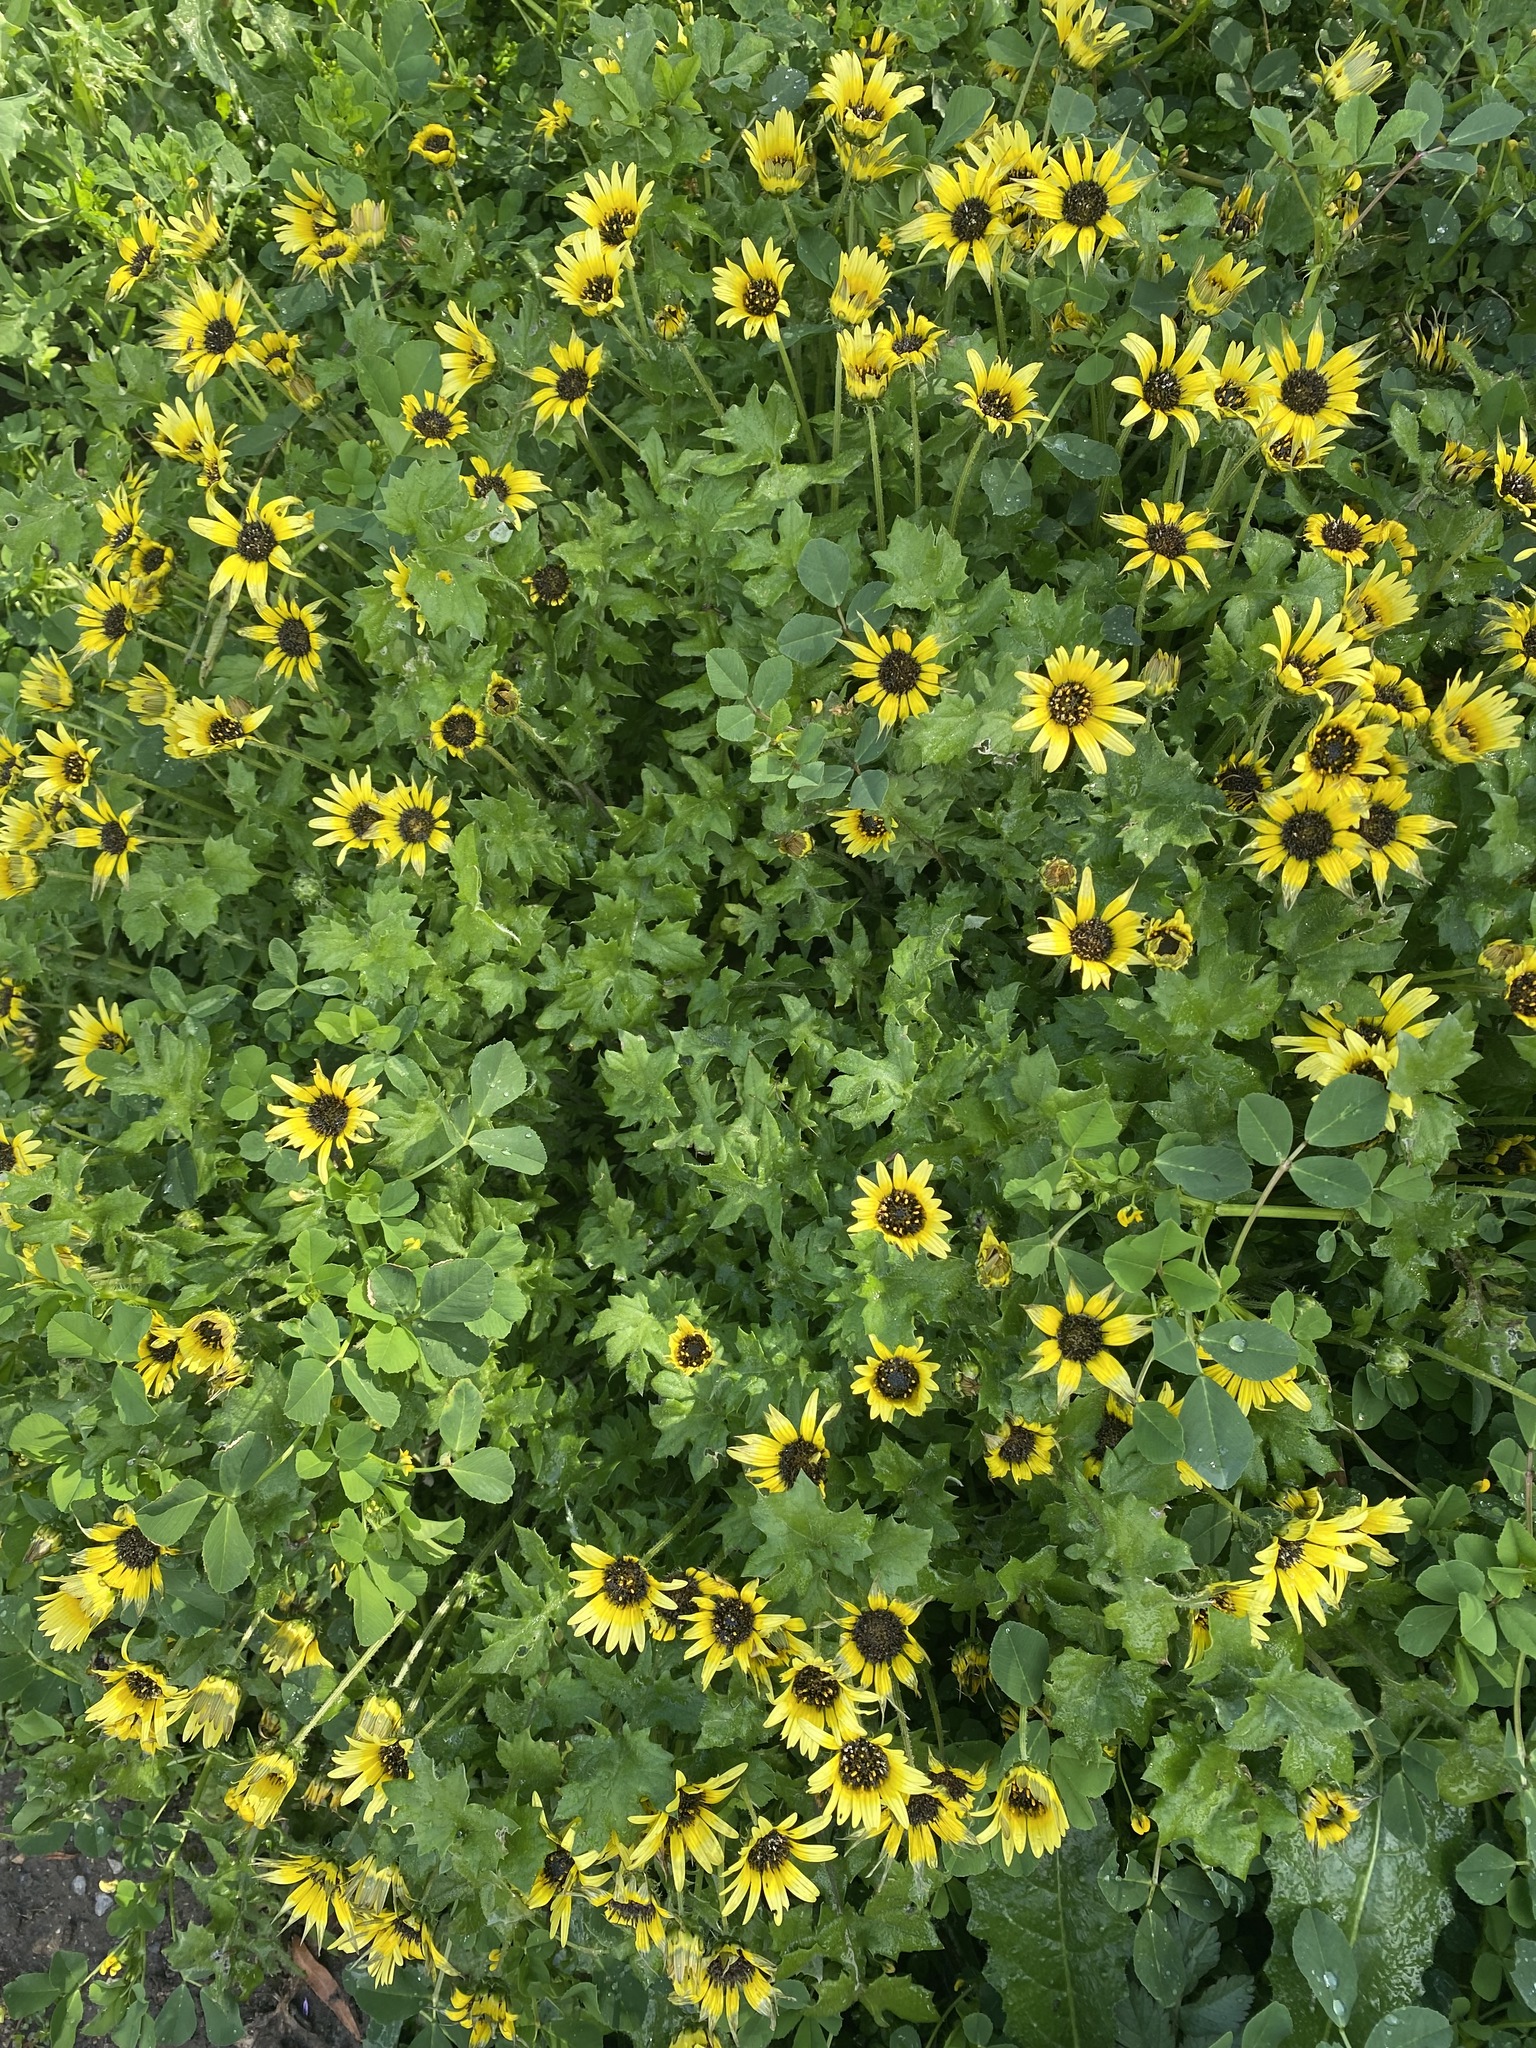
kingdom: Plantae
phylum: Tracheophyta
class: Magnoliopsida
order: Asterales
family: Asteraceae
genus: Arctotheca
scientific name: Arctotheca calendula
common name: Capeweed
